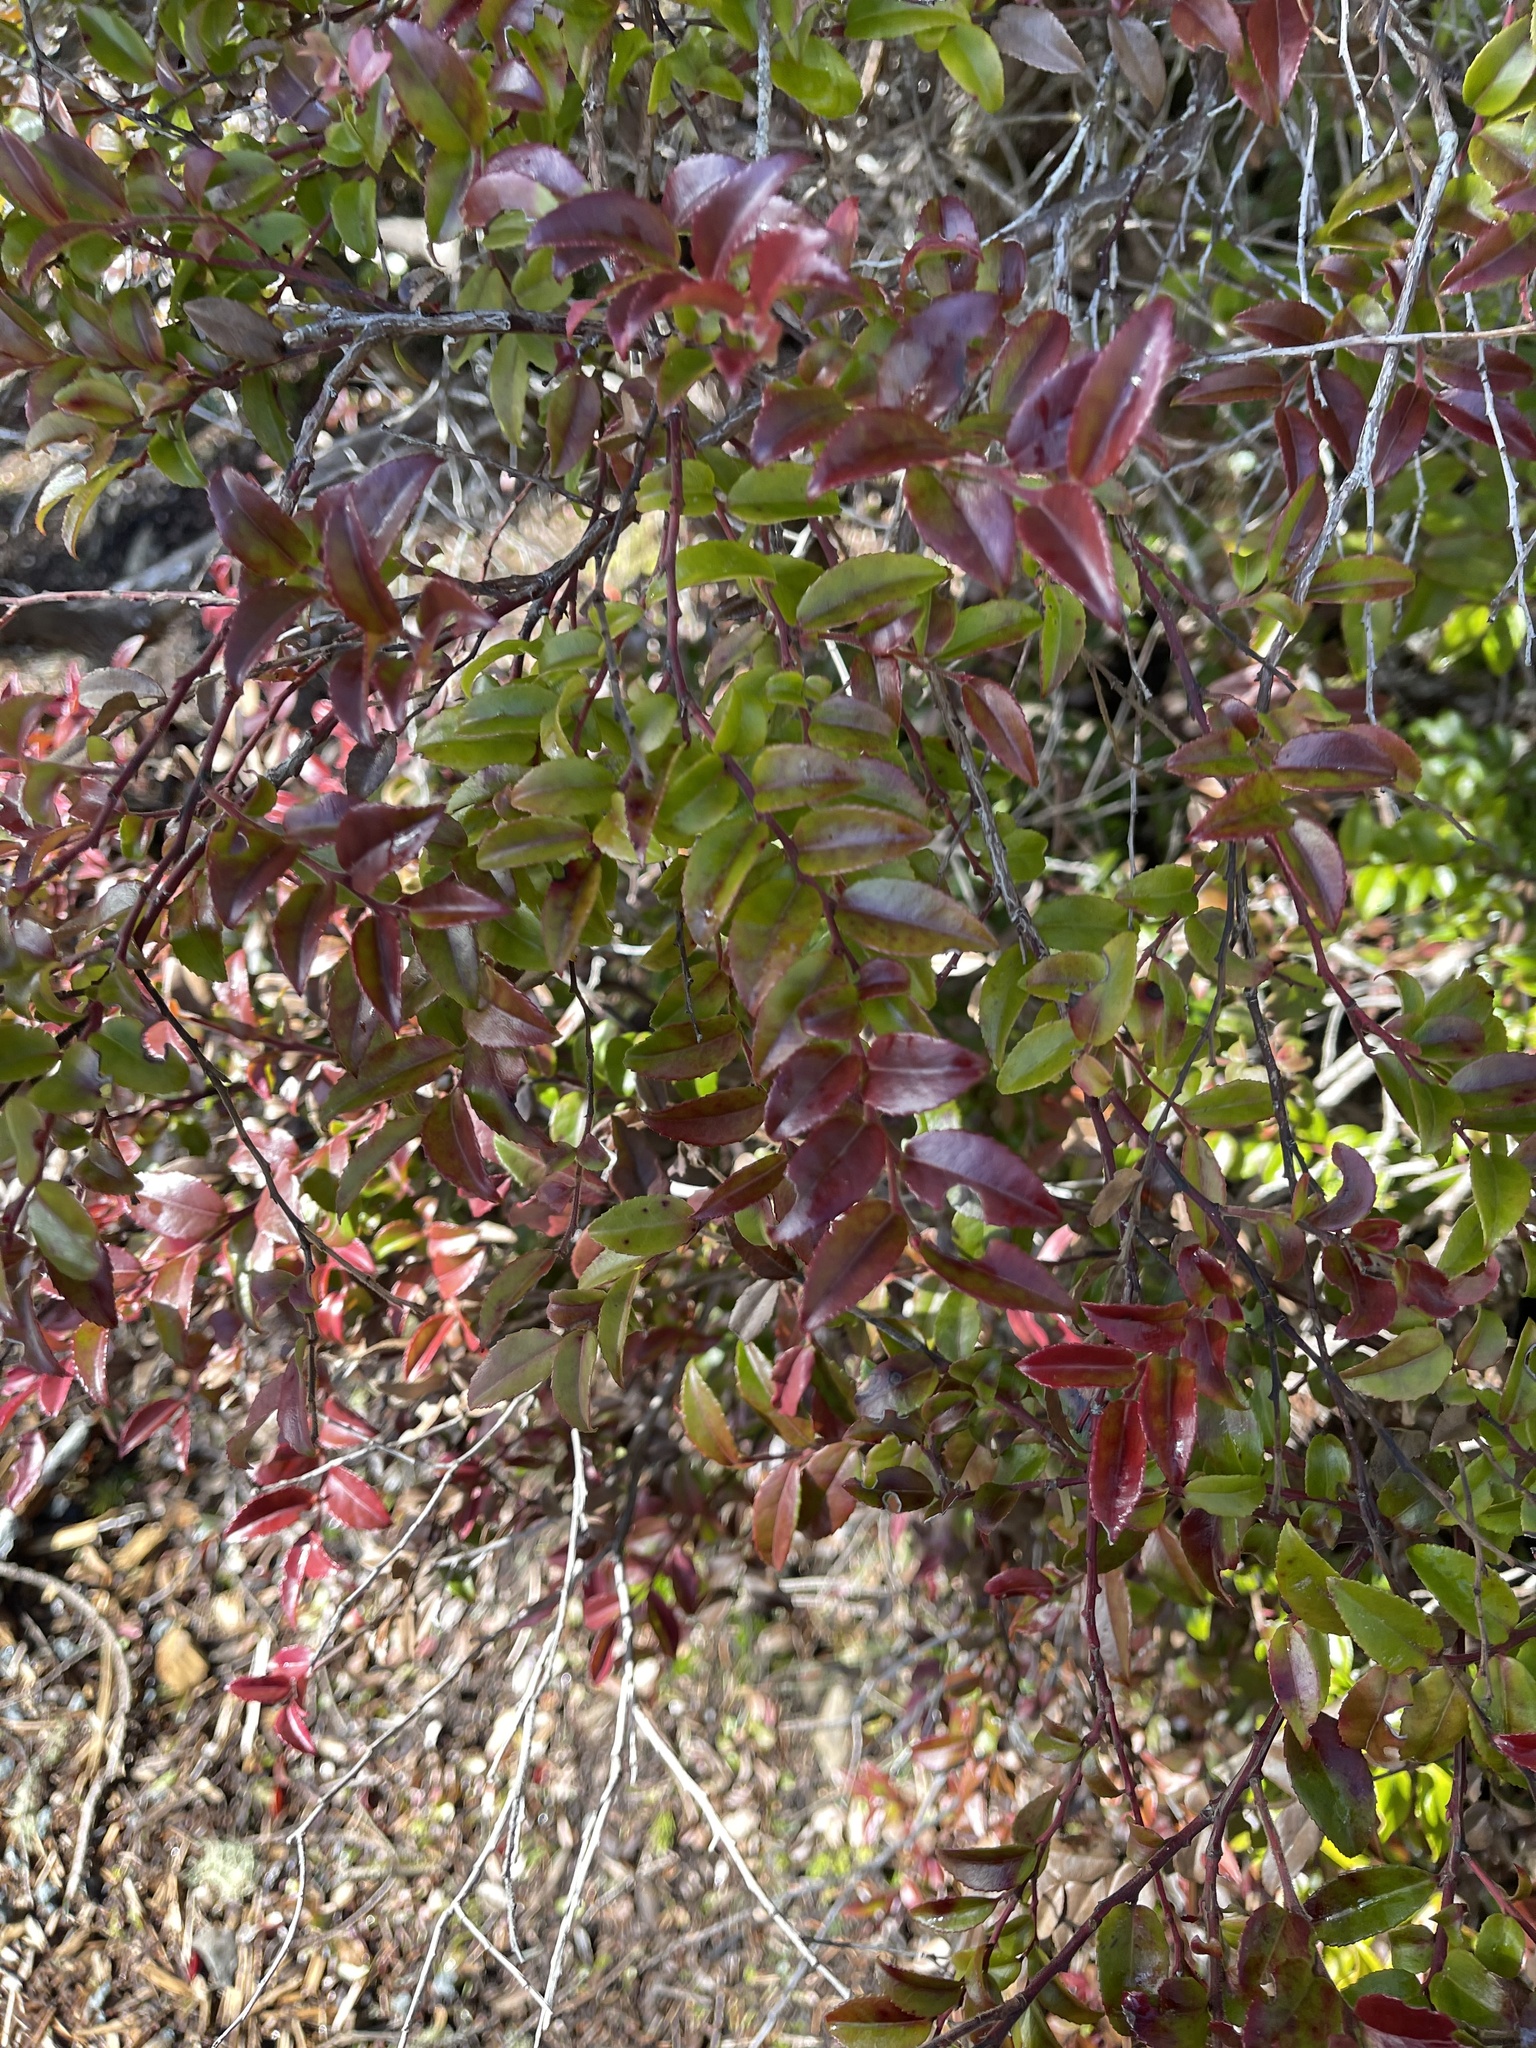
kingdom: Plantae
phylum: Tracheophyta
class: Magnoliopsida
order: Ericales
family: Ericaceae
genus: Vaccinium
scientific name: Vaccinium ovatum
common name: California-huckleberry
